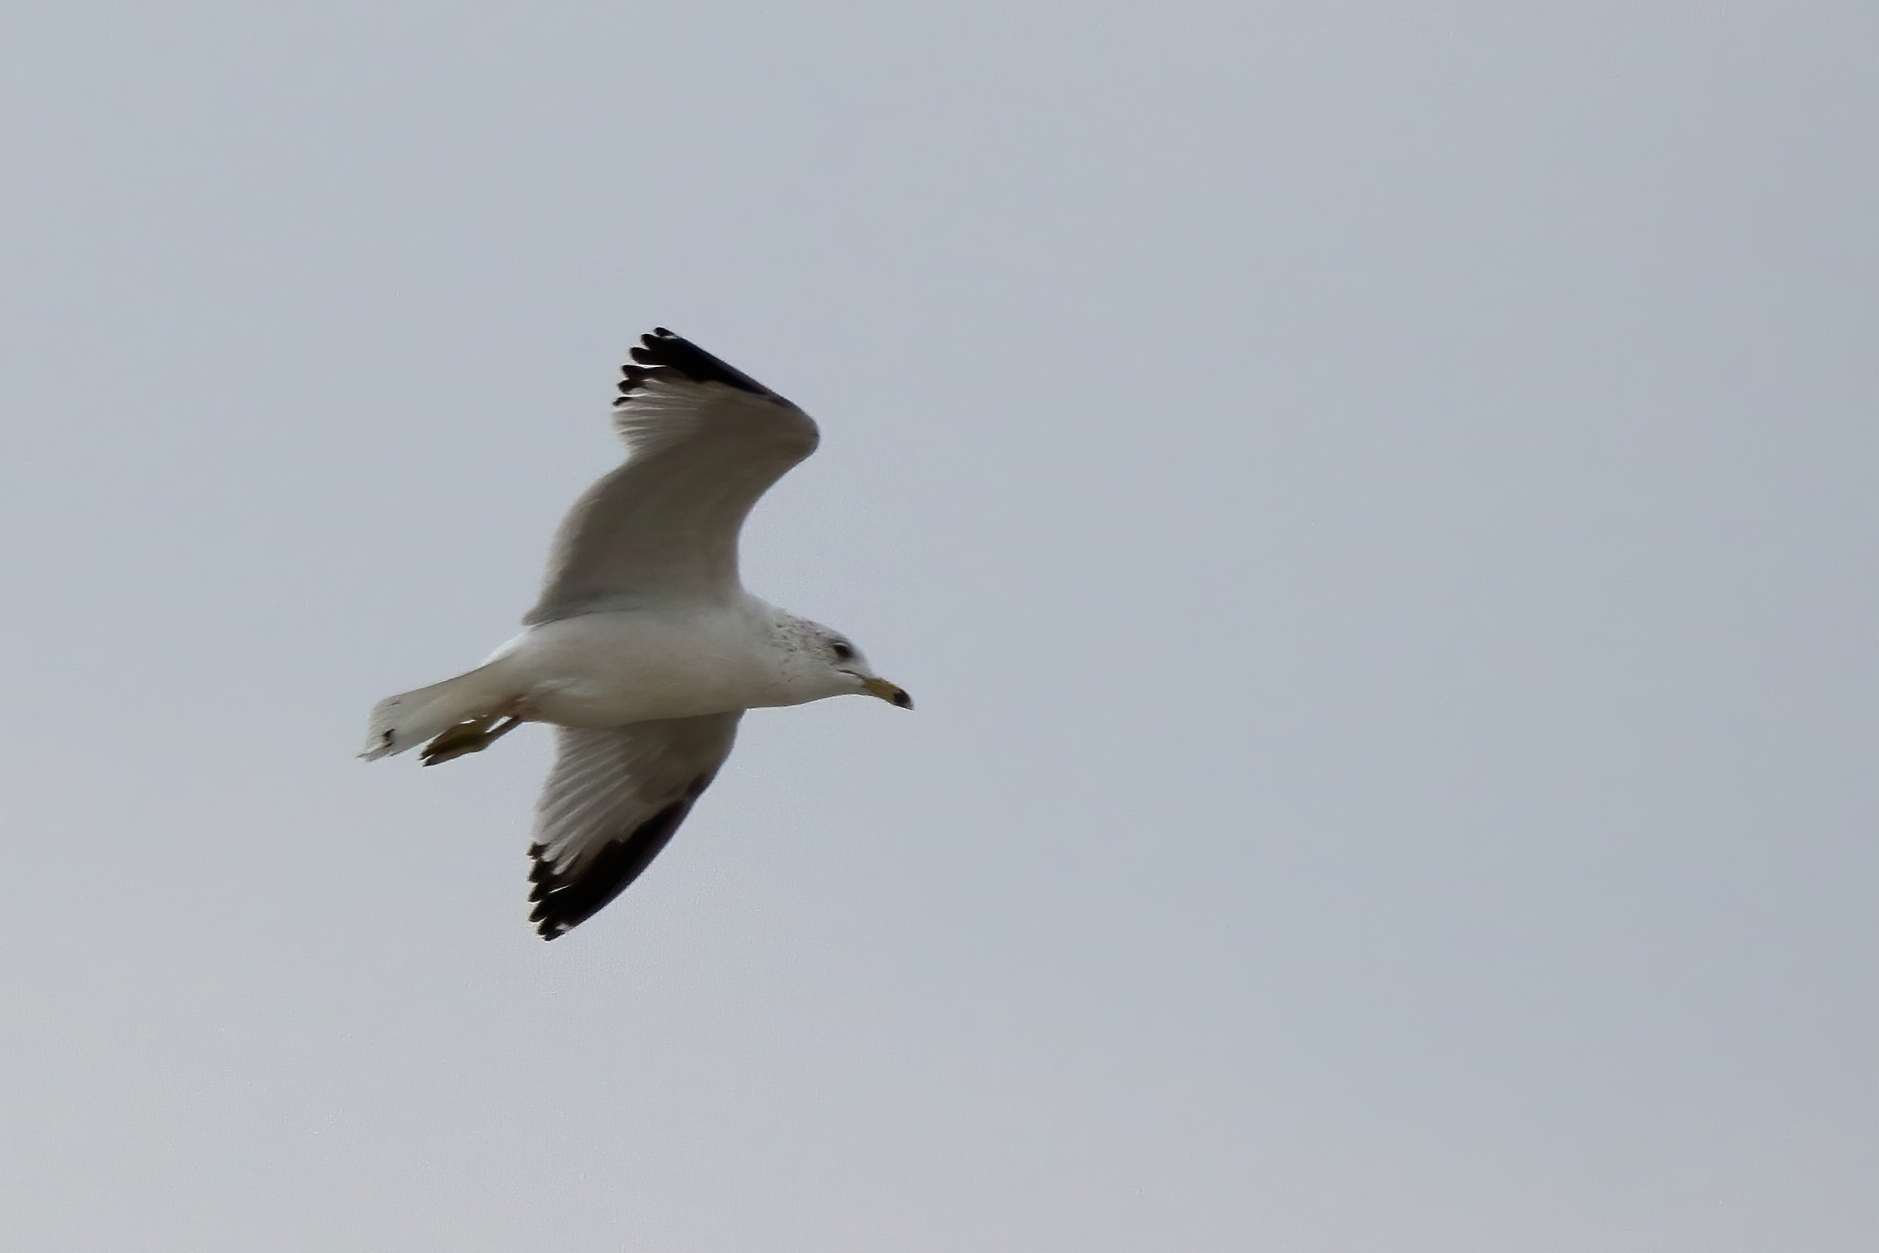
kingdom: Animalia
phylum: Chordata
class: Aves
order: Charadriiformes
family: Laridae
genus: Larus
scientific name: Larus delawarensis
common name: Ring-billed gull
